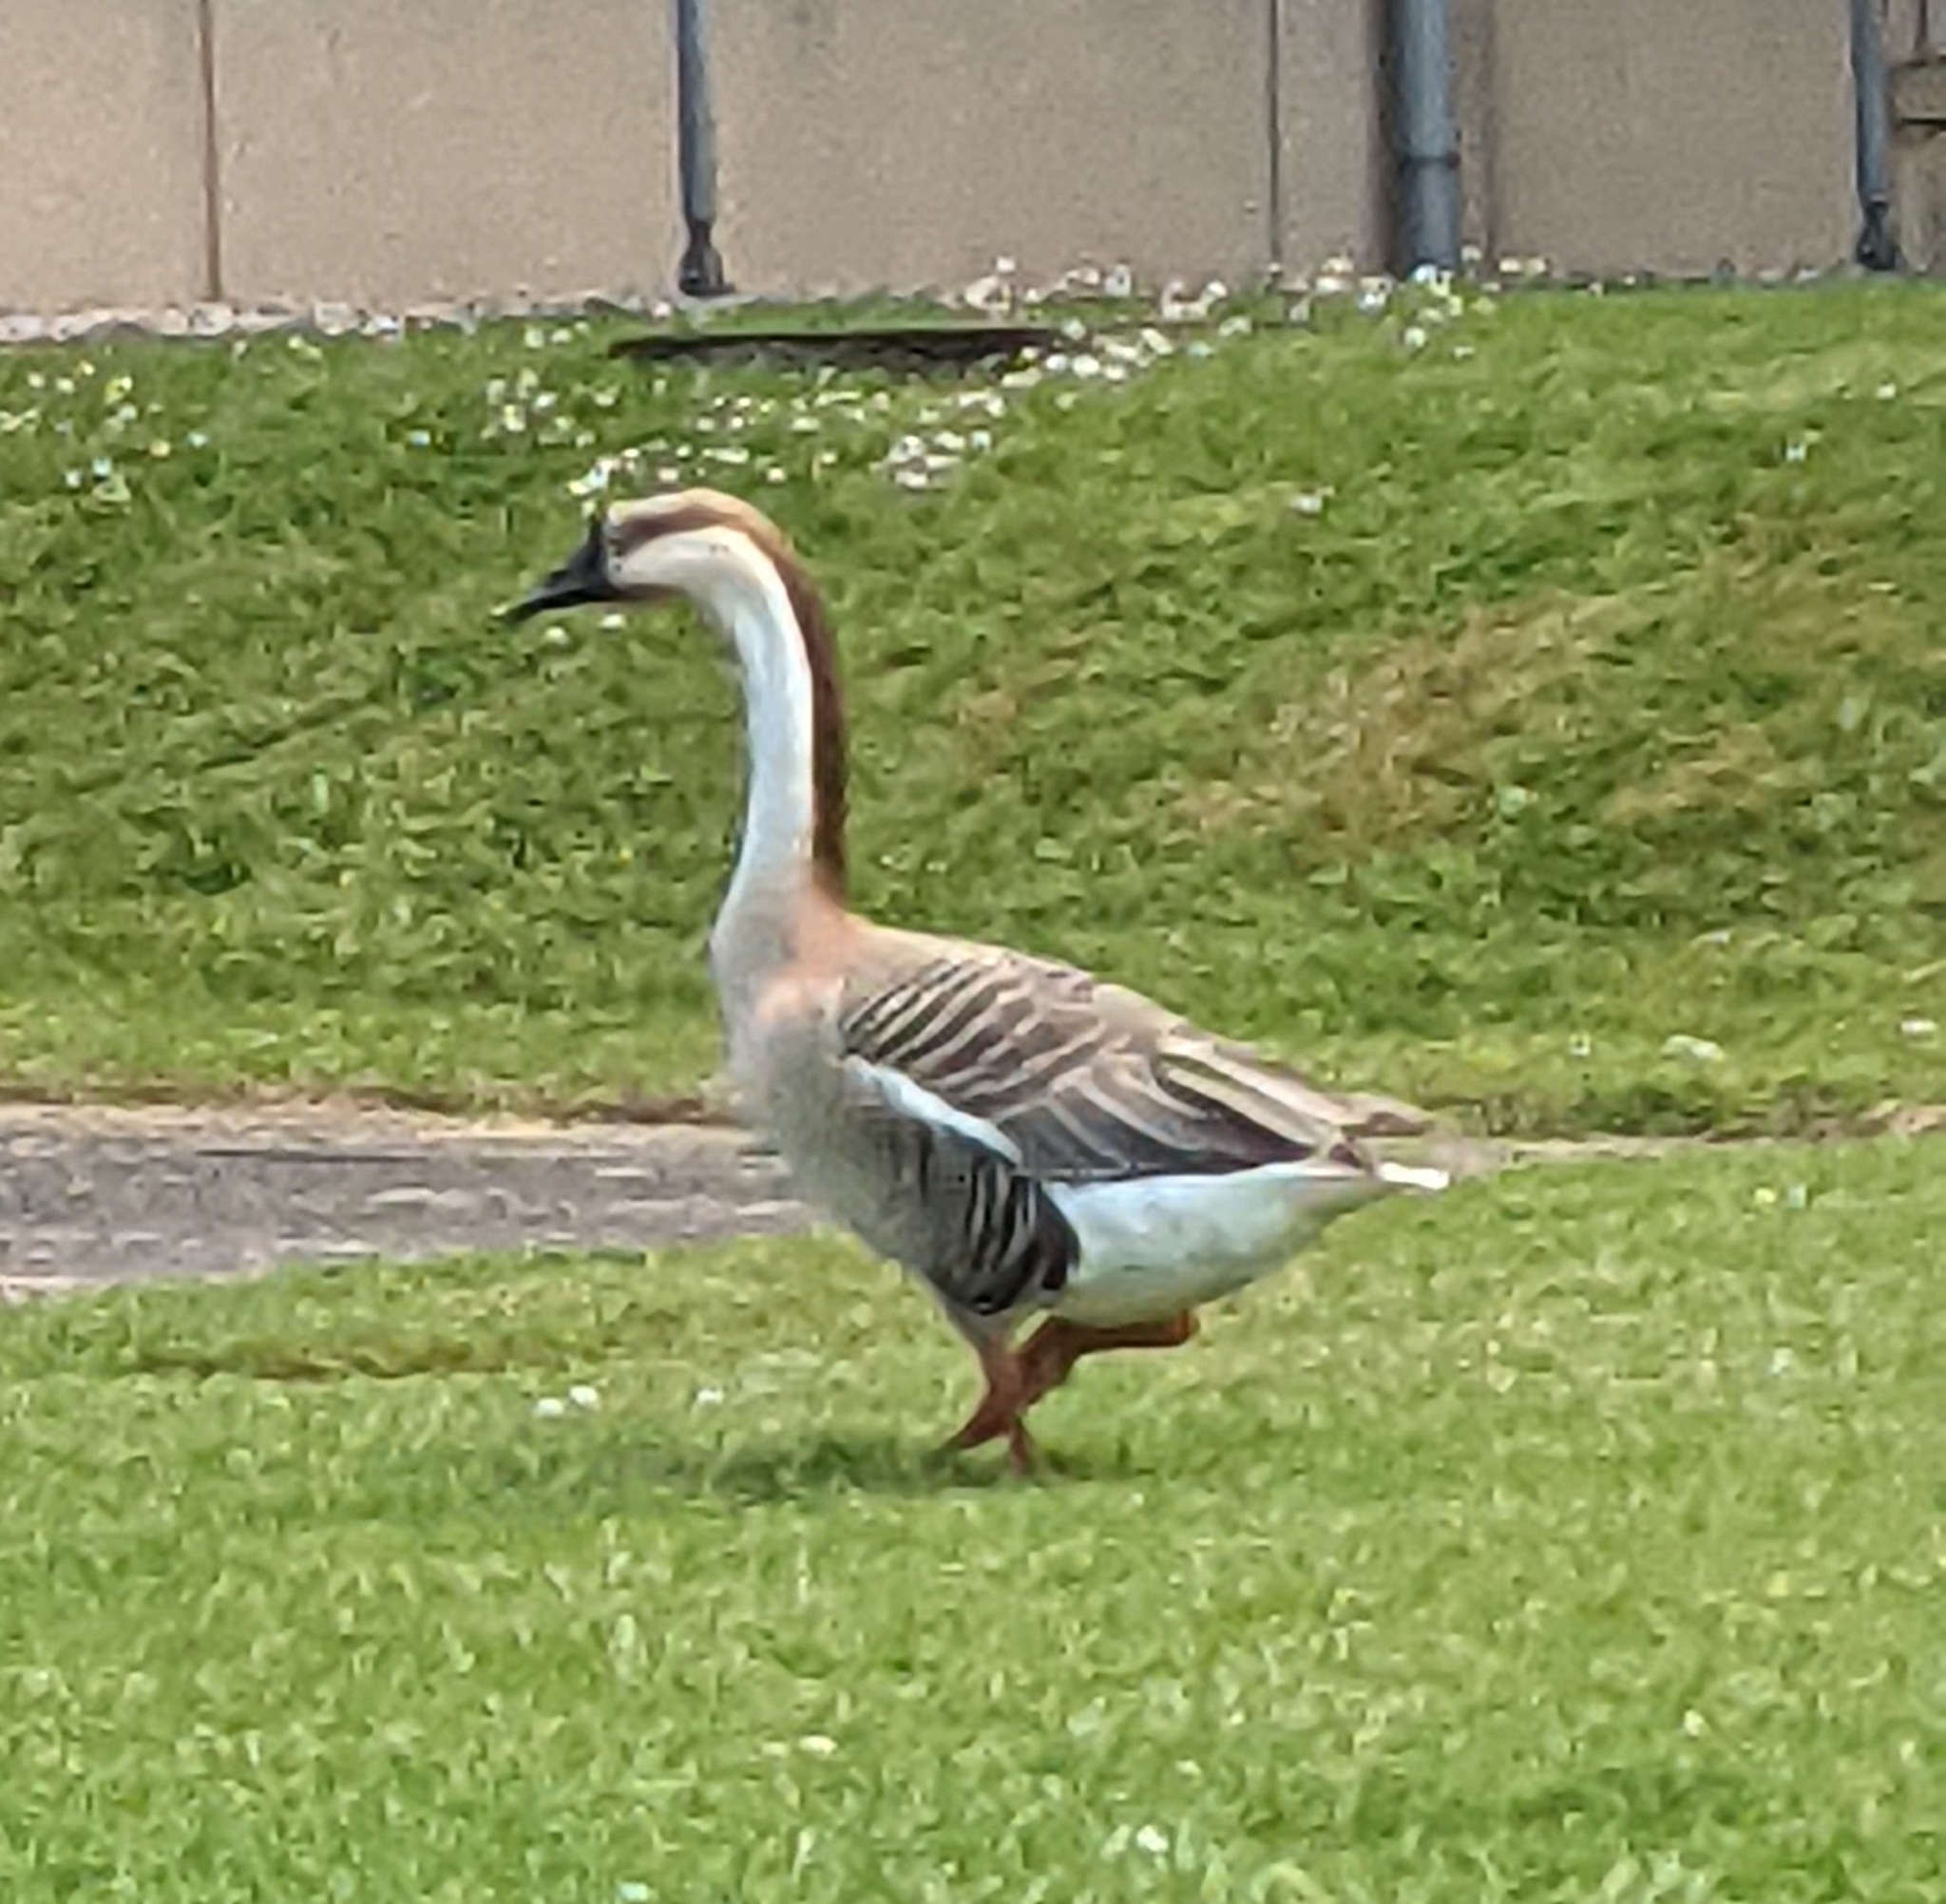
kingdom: Animalia
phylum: Chordata
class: Aves
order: Anseriformes
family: Anatidae
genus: Anser
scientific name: Anser cygnoides
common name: Swan goose
